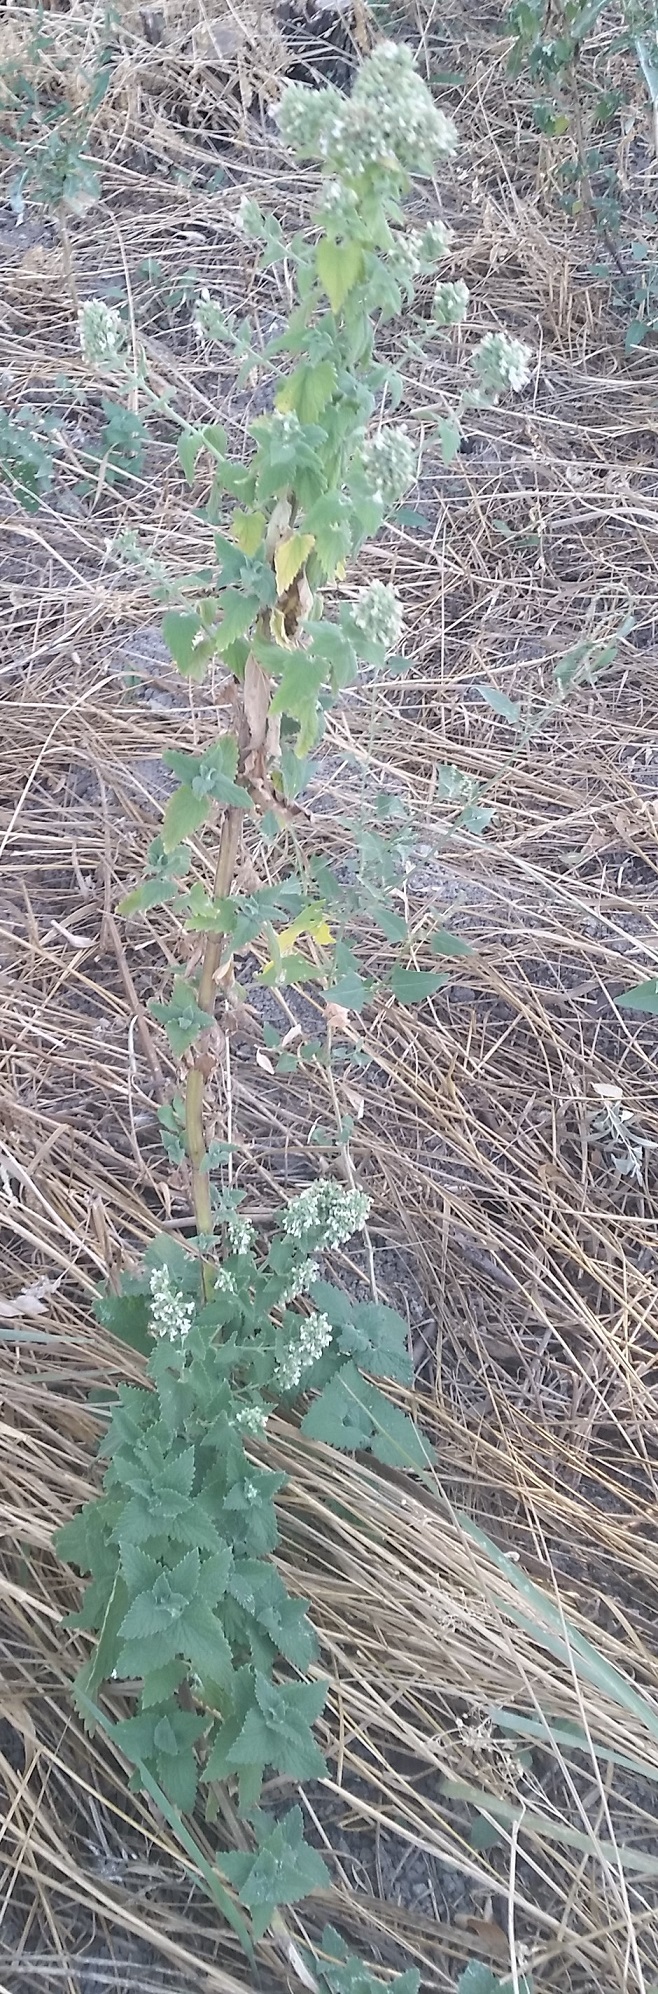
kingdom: Plantae
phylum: Tracheophyta
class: Magnoliopsida
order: Lamiales
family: Lamiaceae
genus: Nepeta
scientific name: Nepeta cataria
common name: Catnip
